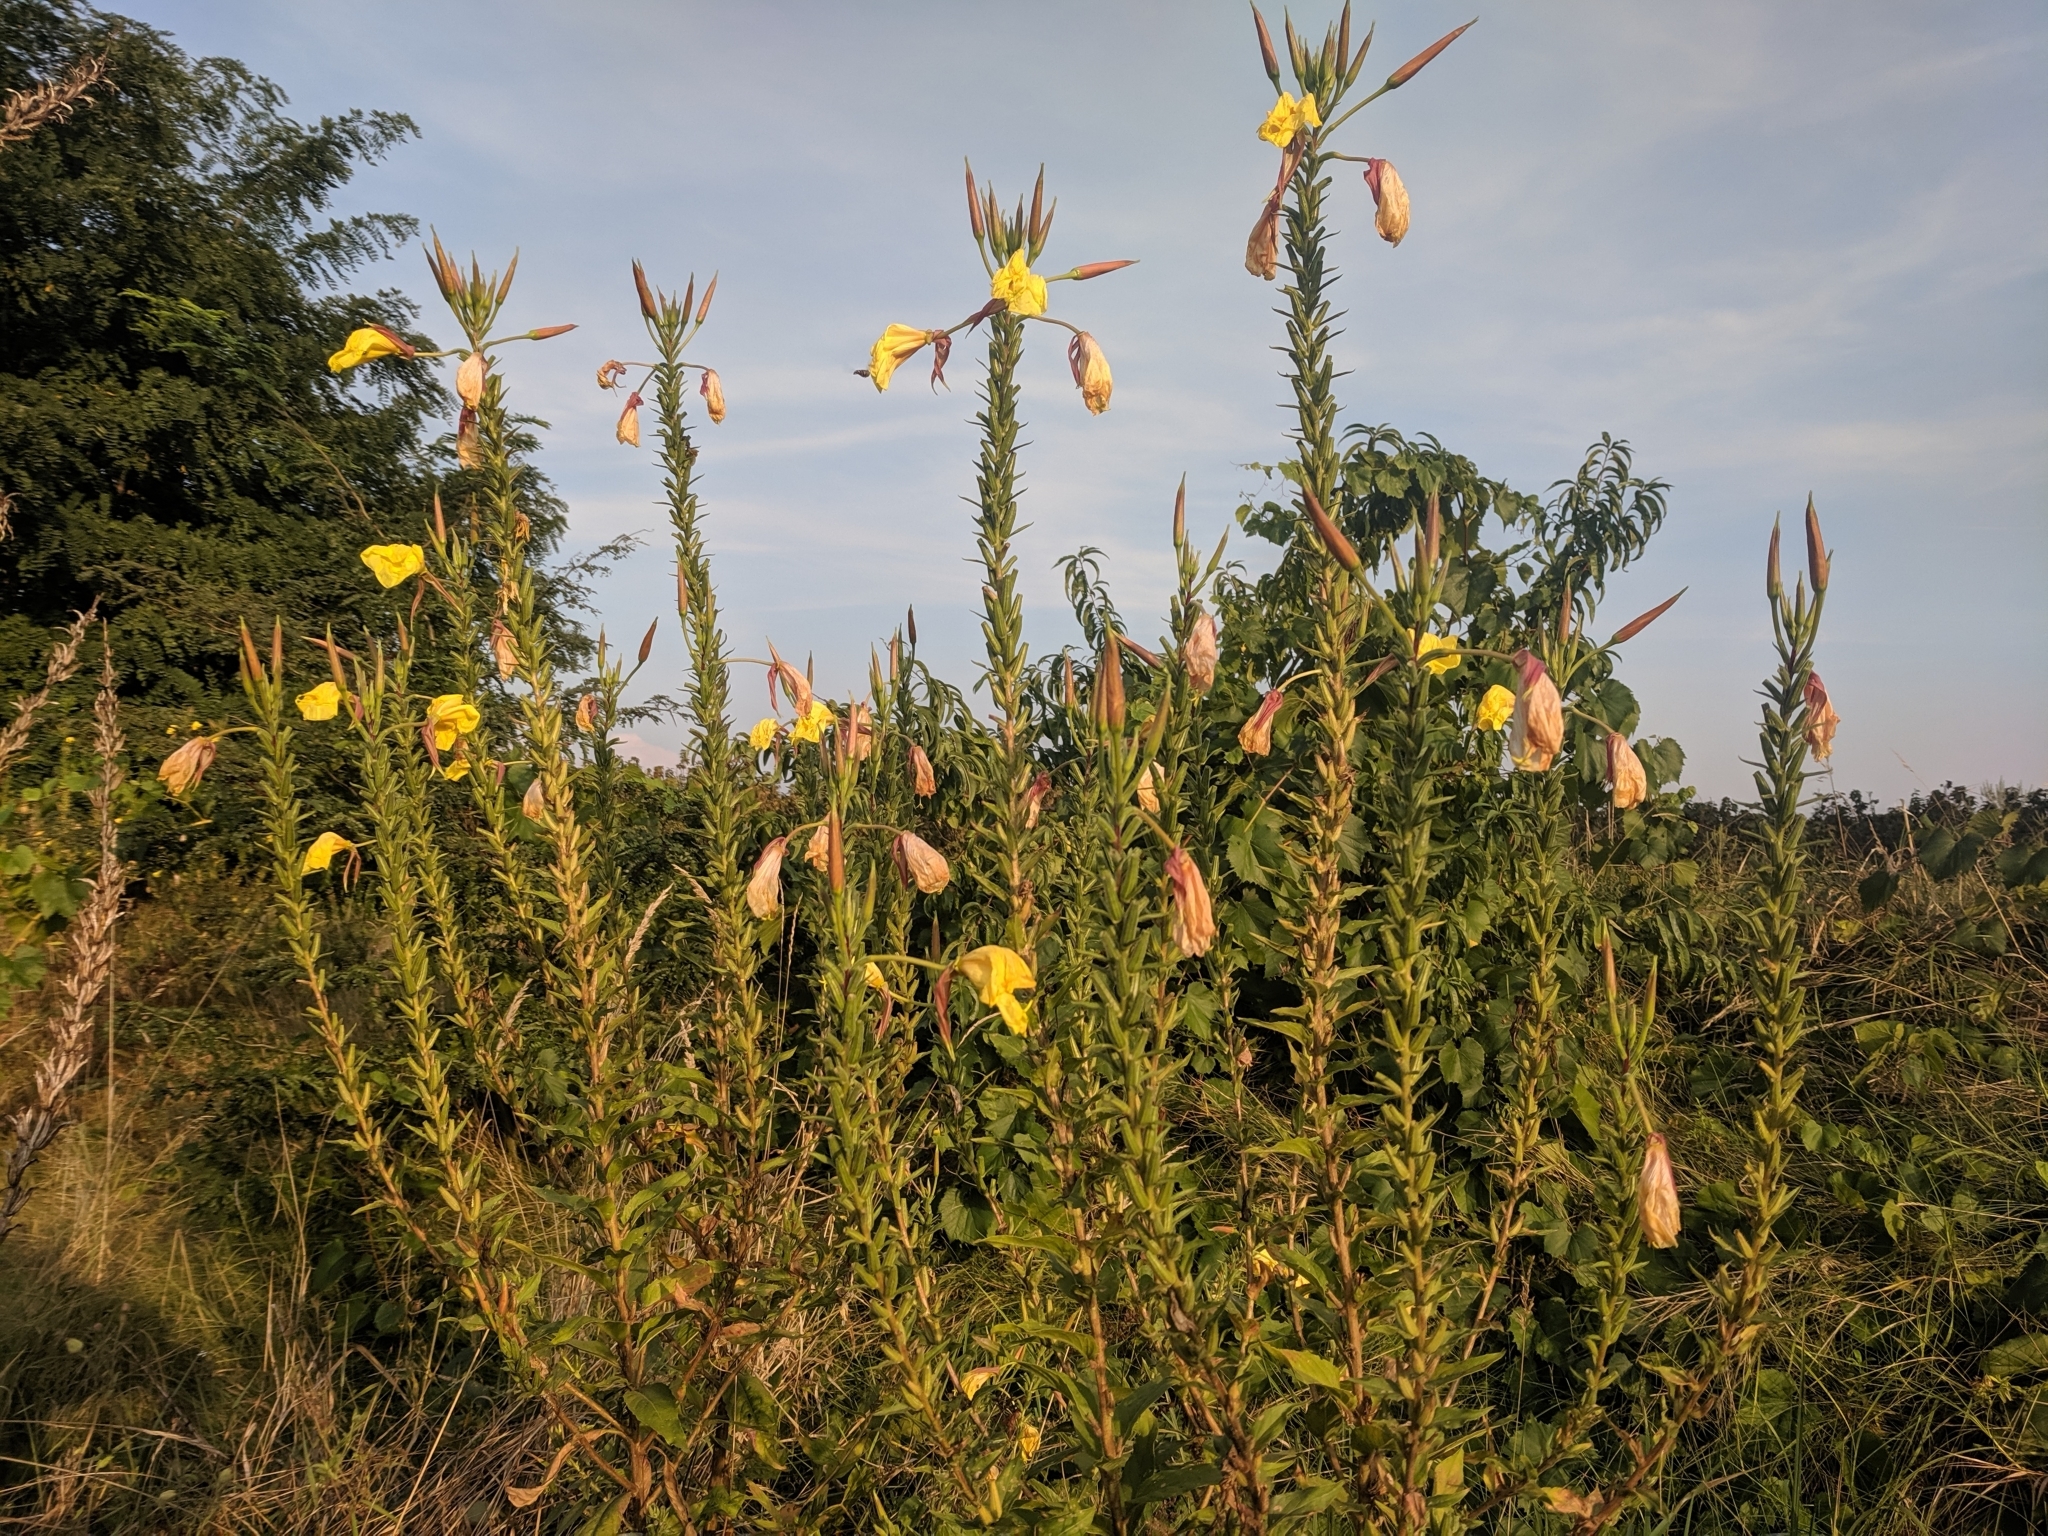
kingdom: Plantae
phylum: Tracheophyta
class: Magnoliopsida
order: Myrtales
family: Onagraceae
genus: Oenothera
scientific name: Oenothera glazioviana
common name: Large-flowered evening-primrose
